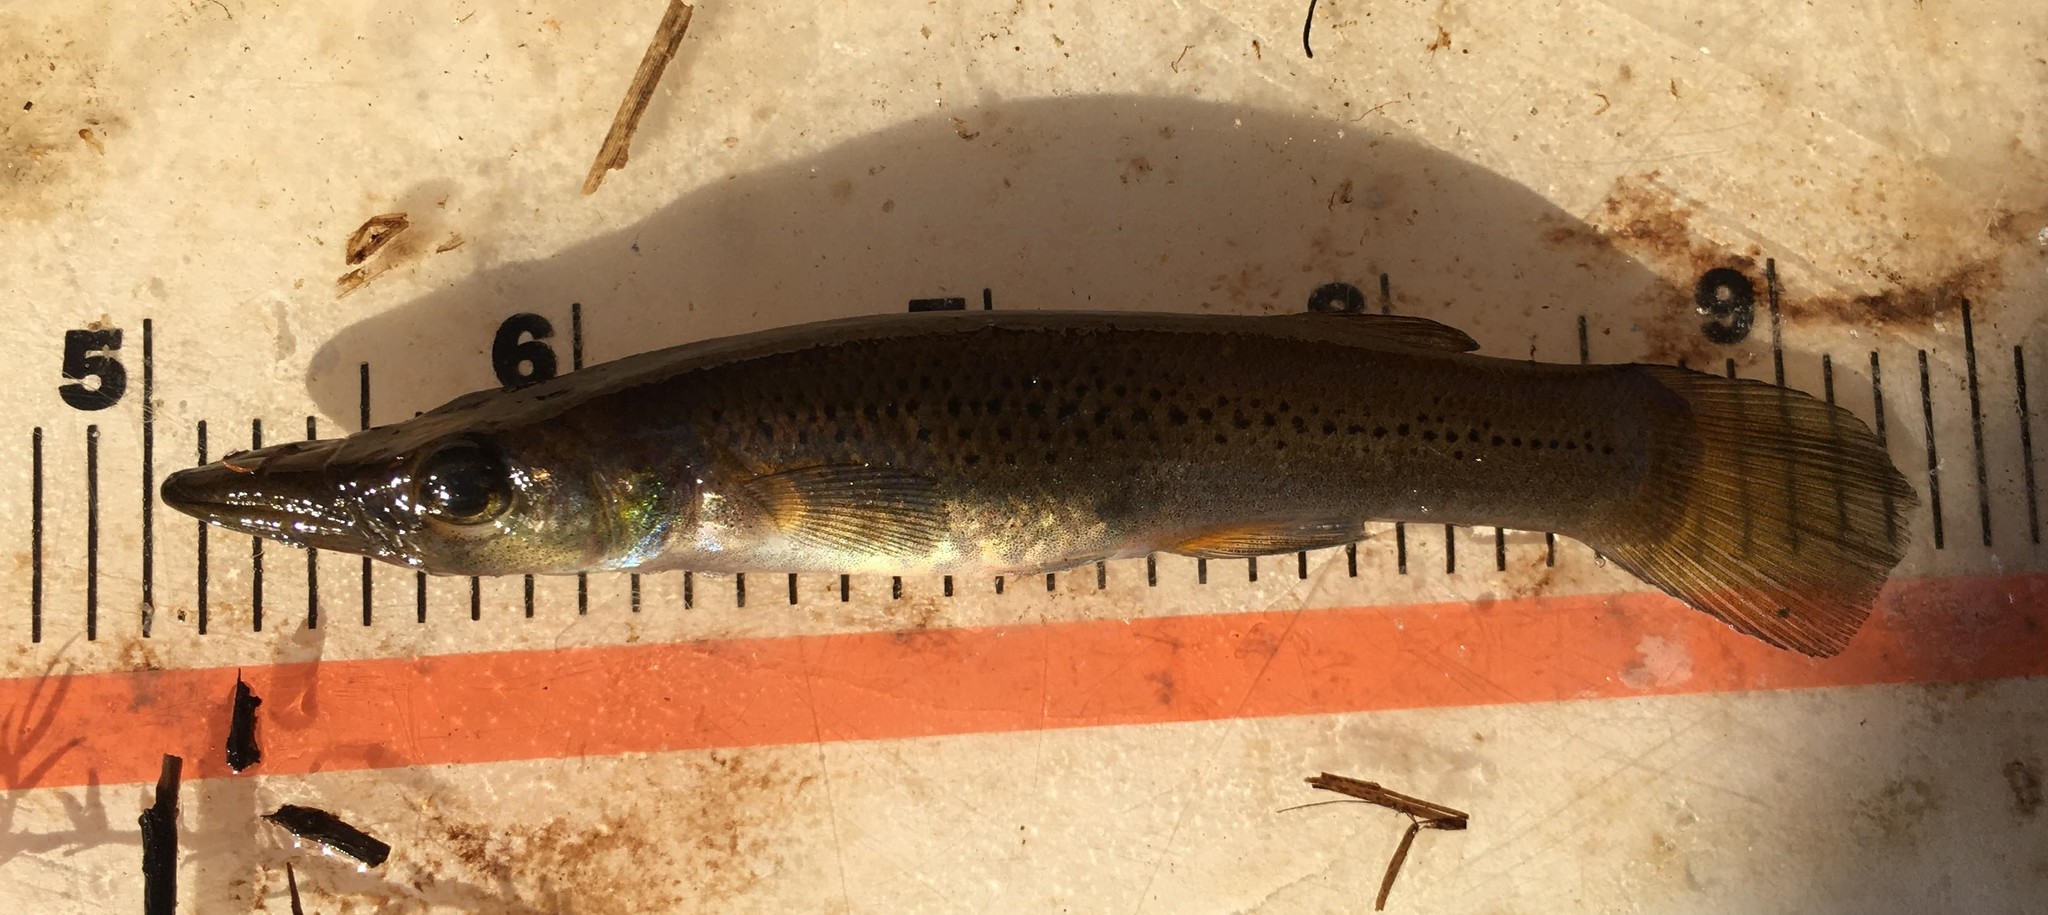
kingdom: Animalia
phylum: Chordata
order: Cyprinodontiformes
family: Poeciliidae
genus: Belonesox
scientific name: Belonesox belizanus
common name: Pike killifish
